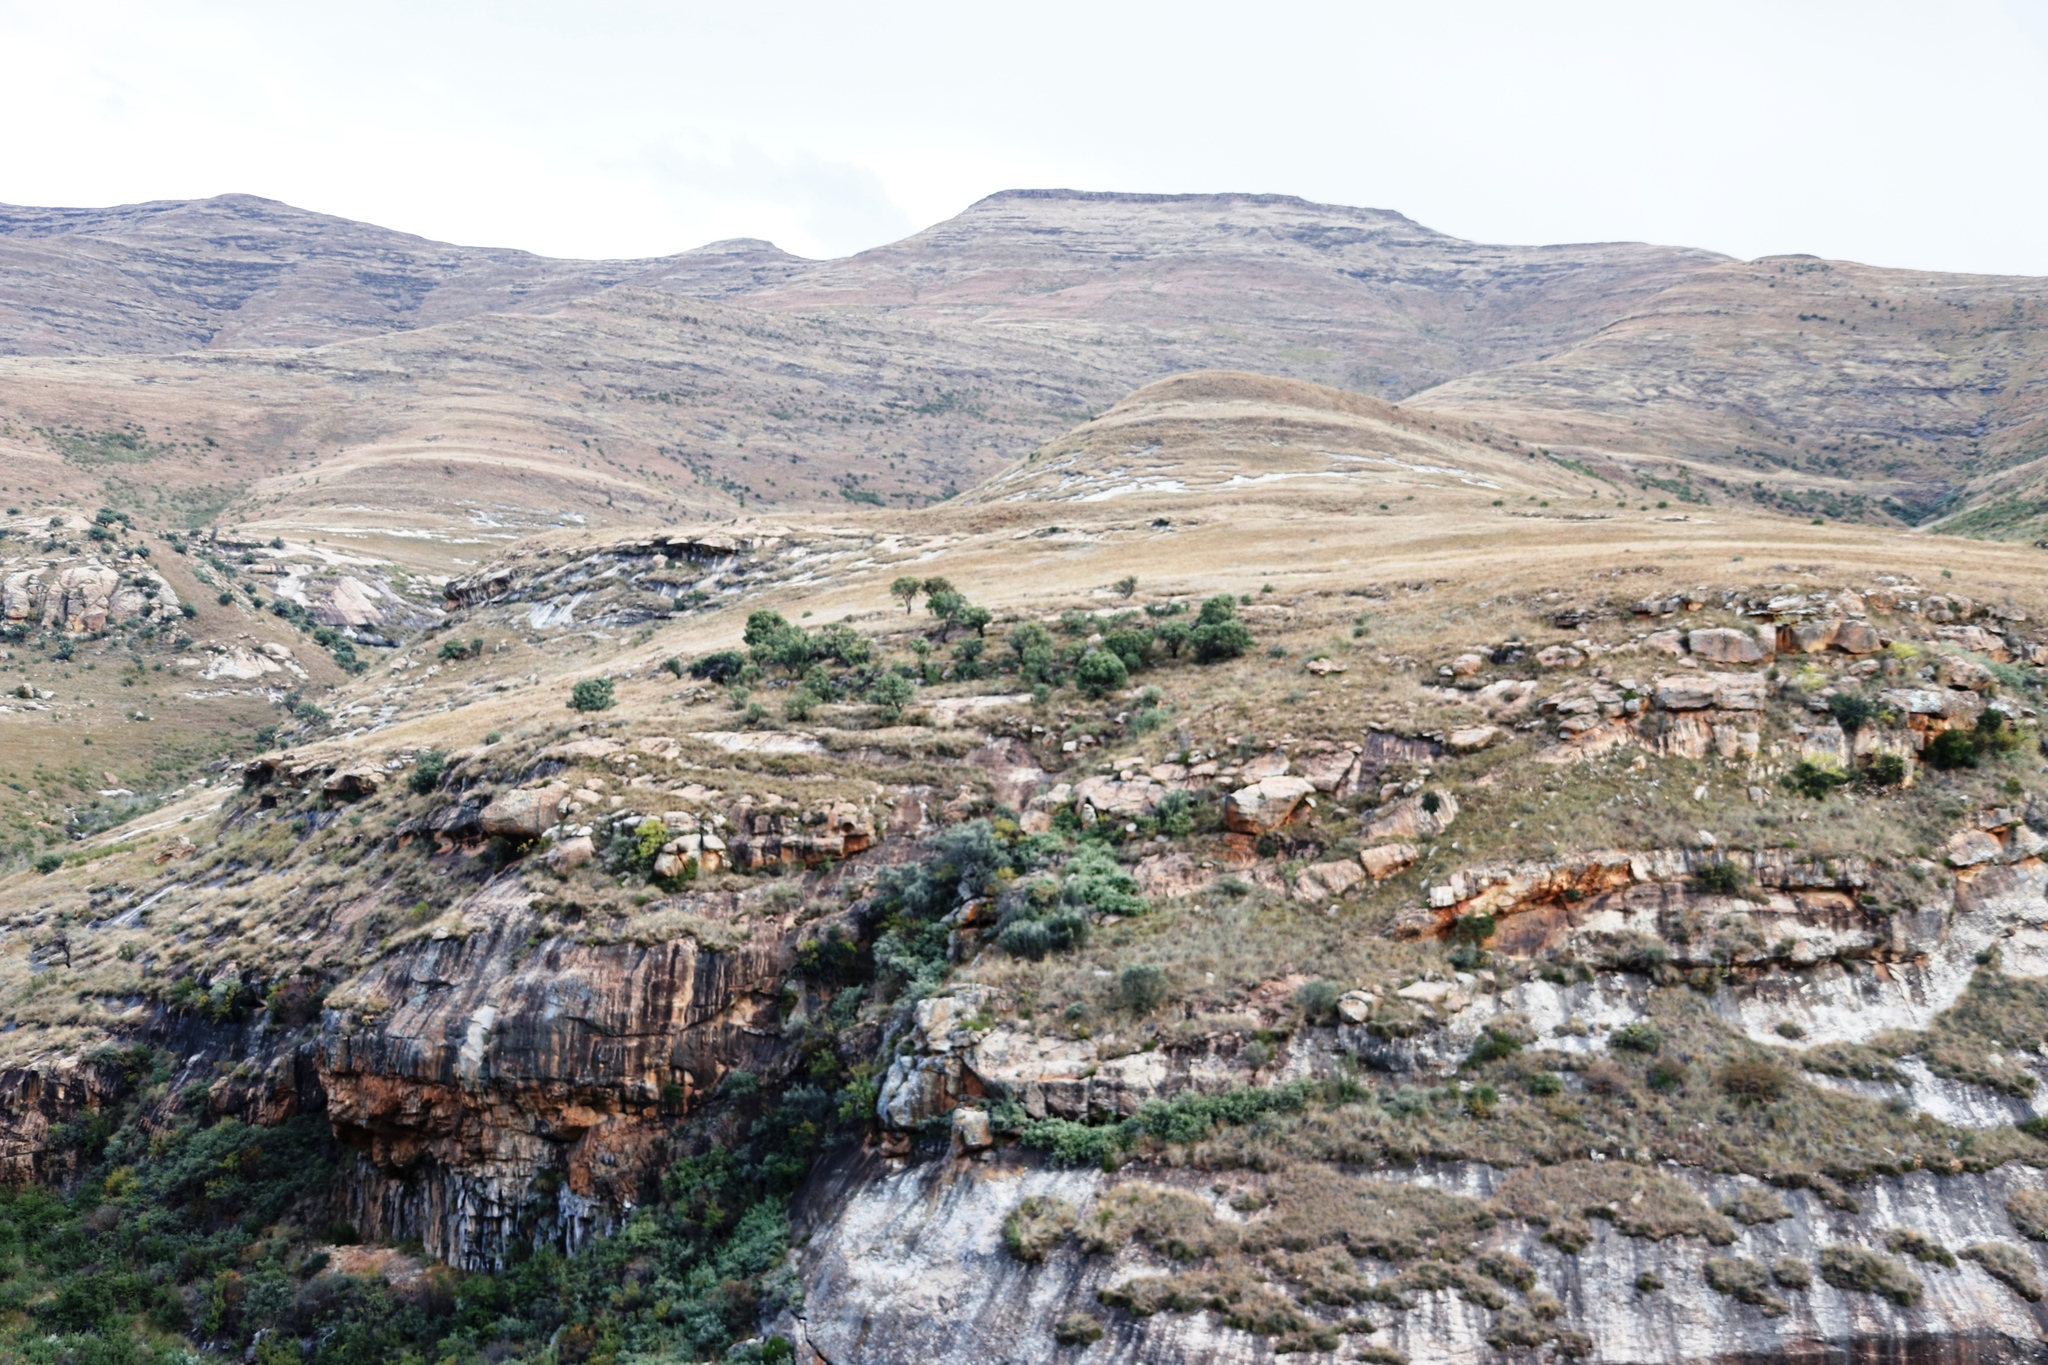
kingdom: Plantae
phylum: Tracheophyta
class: Magnoliopsida
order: Proteales
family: Proteaceae
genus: Protea
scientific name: Protea caffra
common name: Common sugarbush
